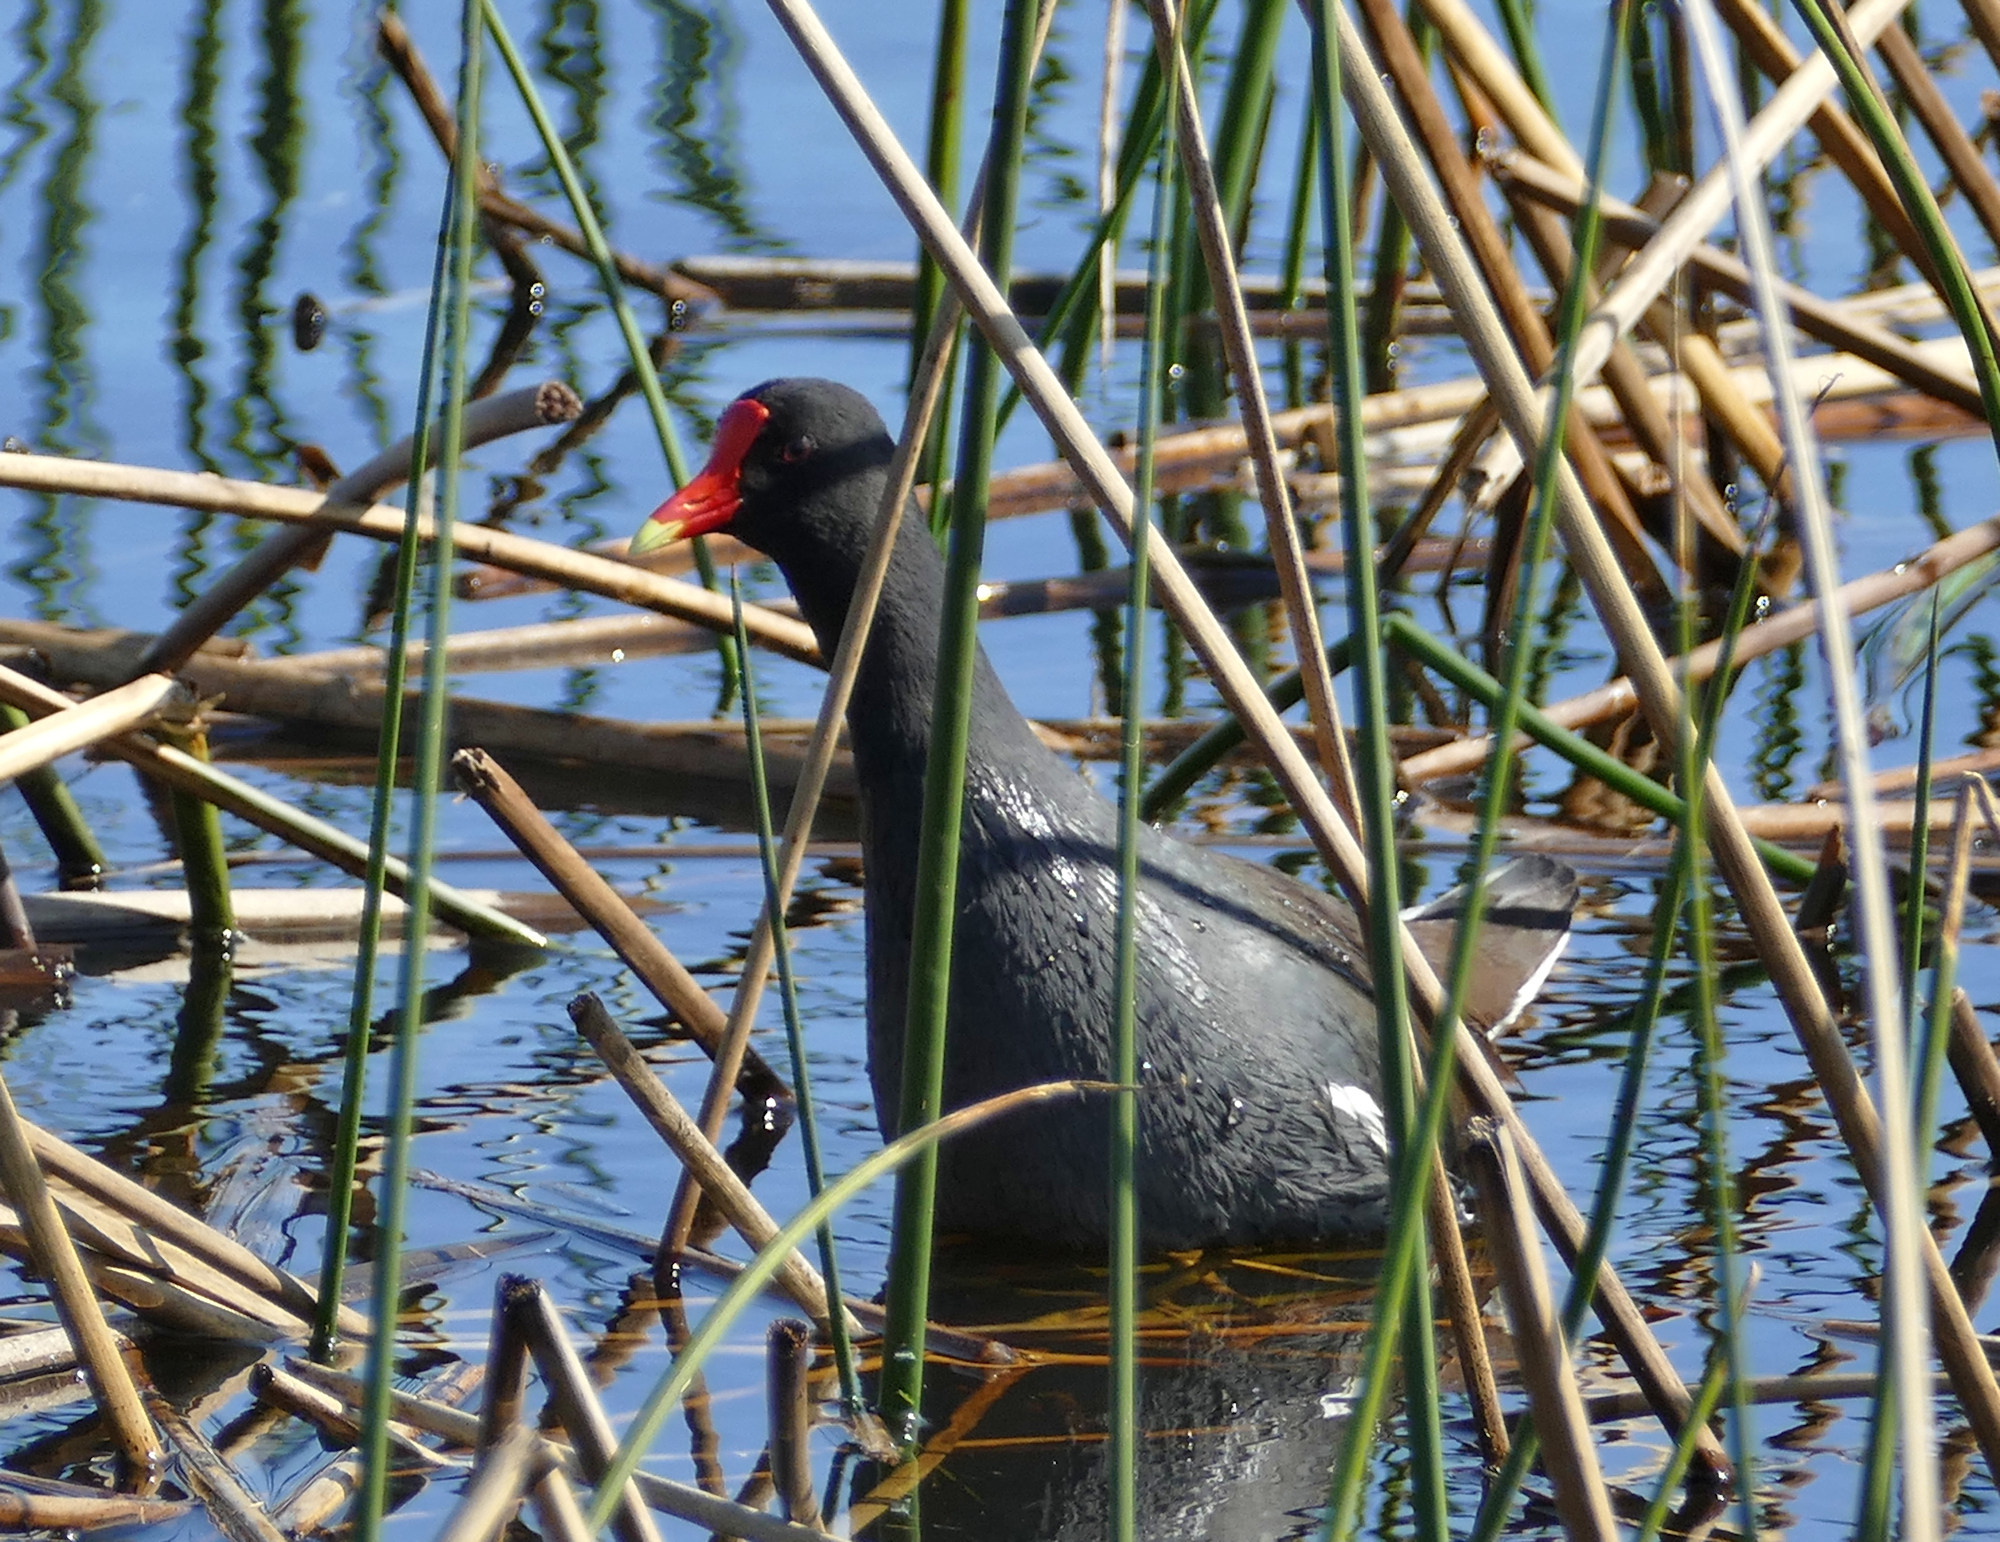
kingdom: Animalia
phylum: Chordata
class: Aves
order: Gruiformes
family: Rallidae
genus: Gallinula
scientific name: Gallinula chloropus
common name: Common moorhen
